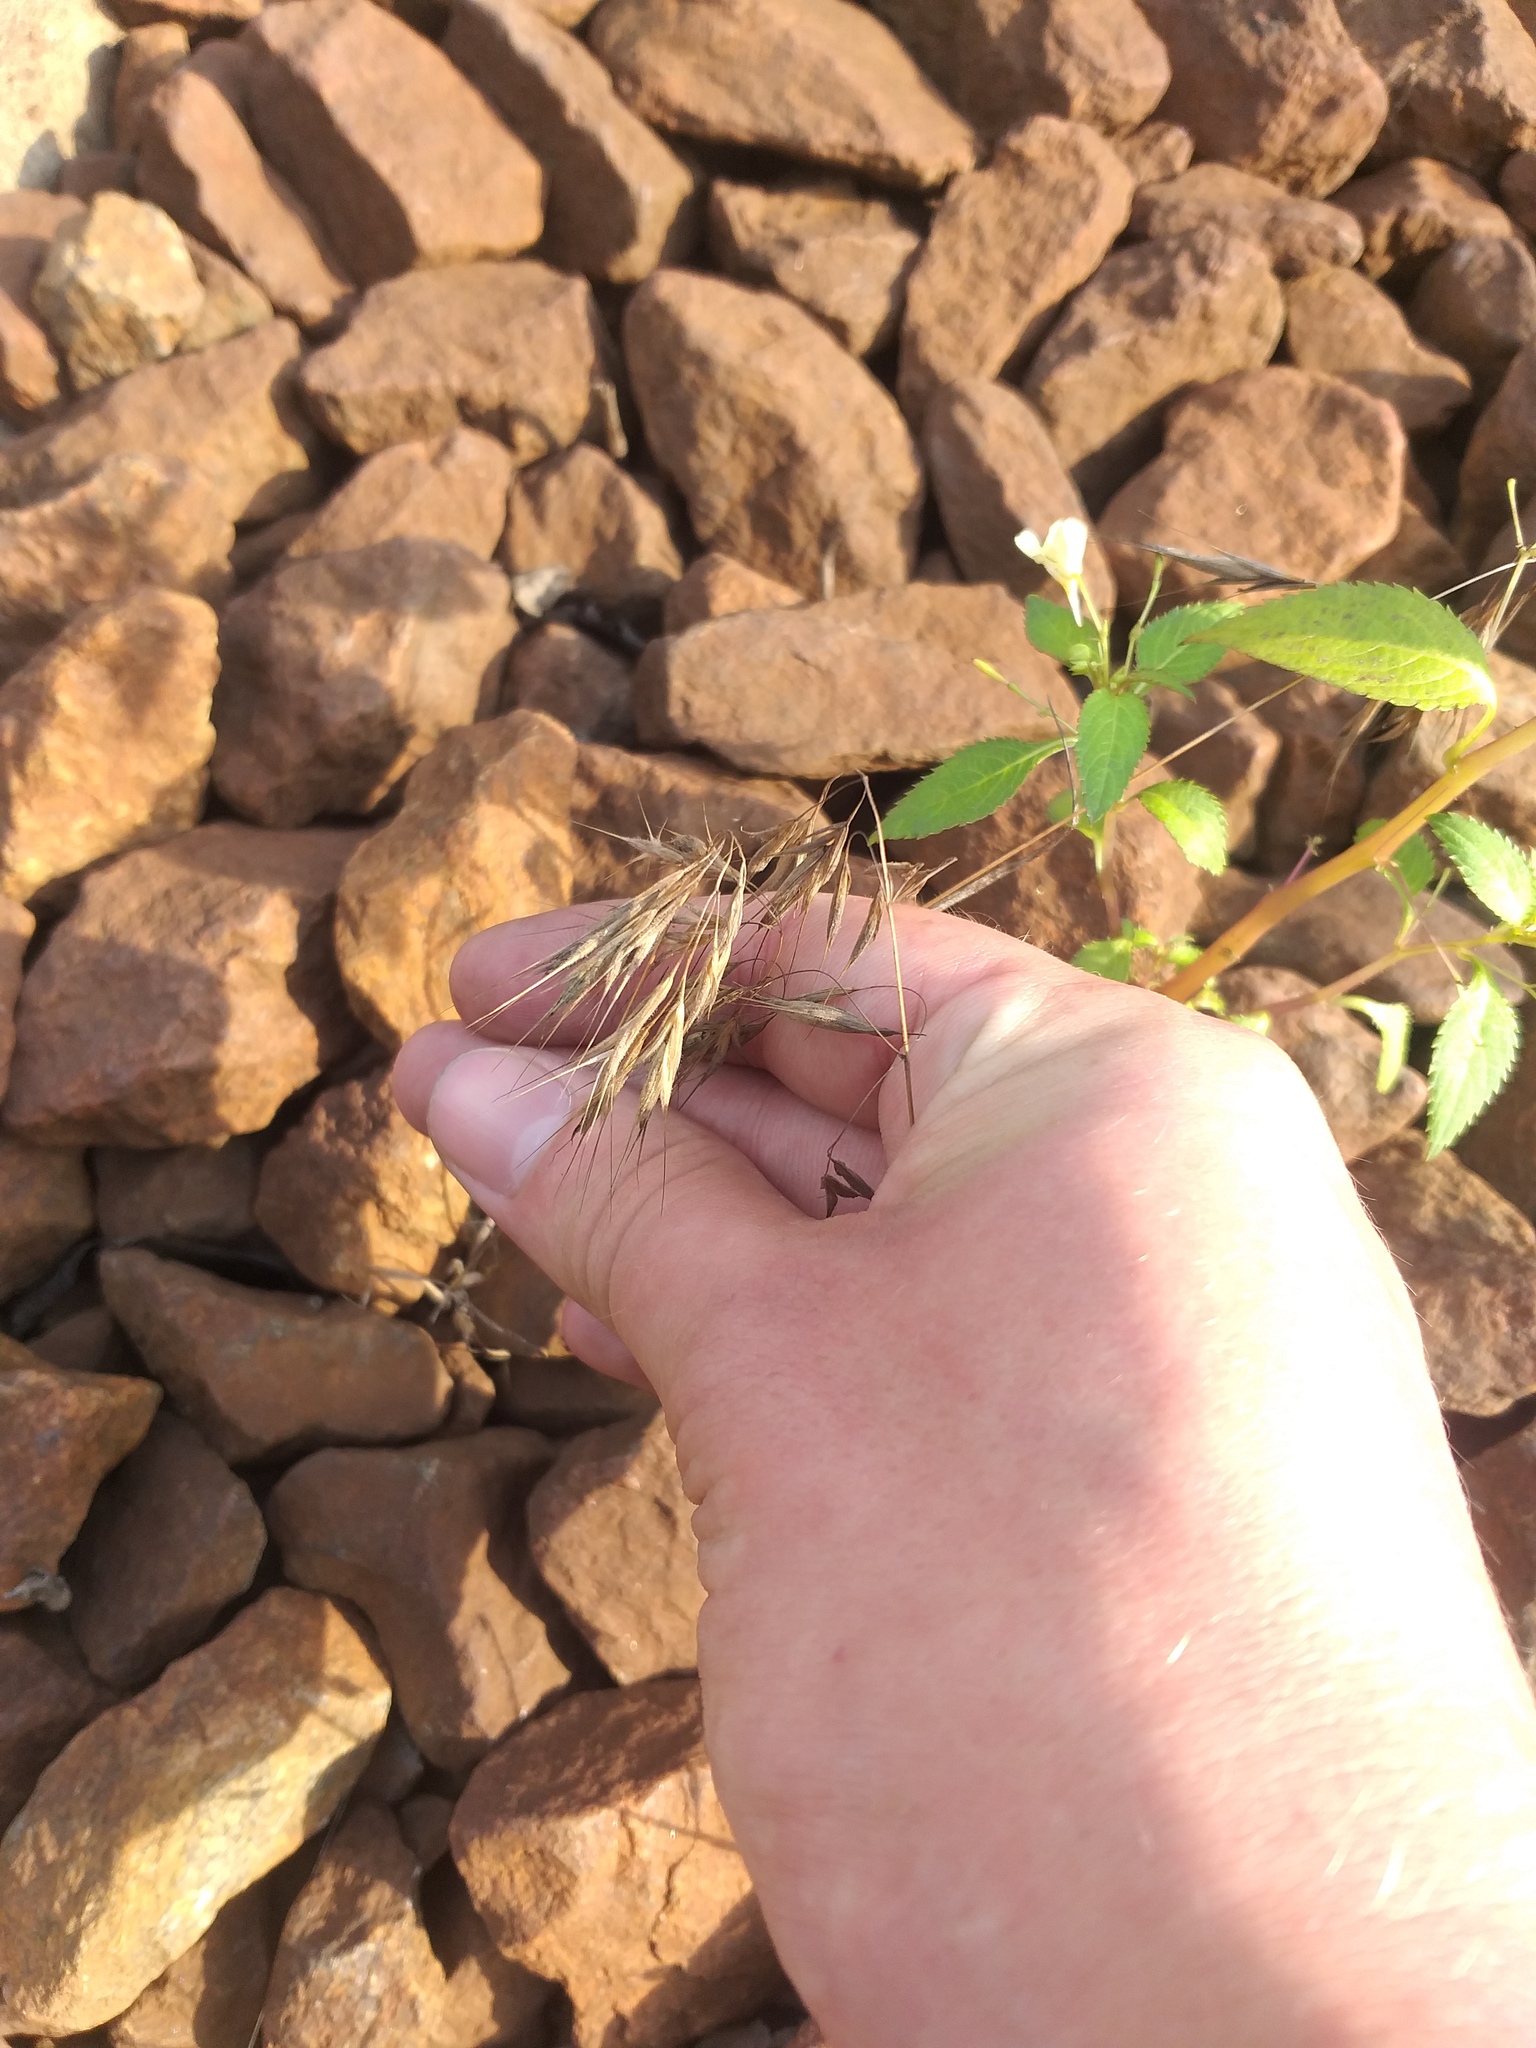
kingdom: Plantae
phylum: Tracheophyta
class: Liliopsida
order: Poales
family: Poaceae
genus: Bromus
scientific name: Bromus tectorum
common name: Cheatgrass
